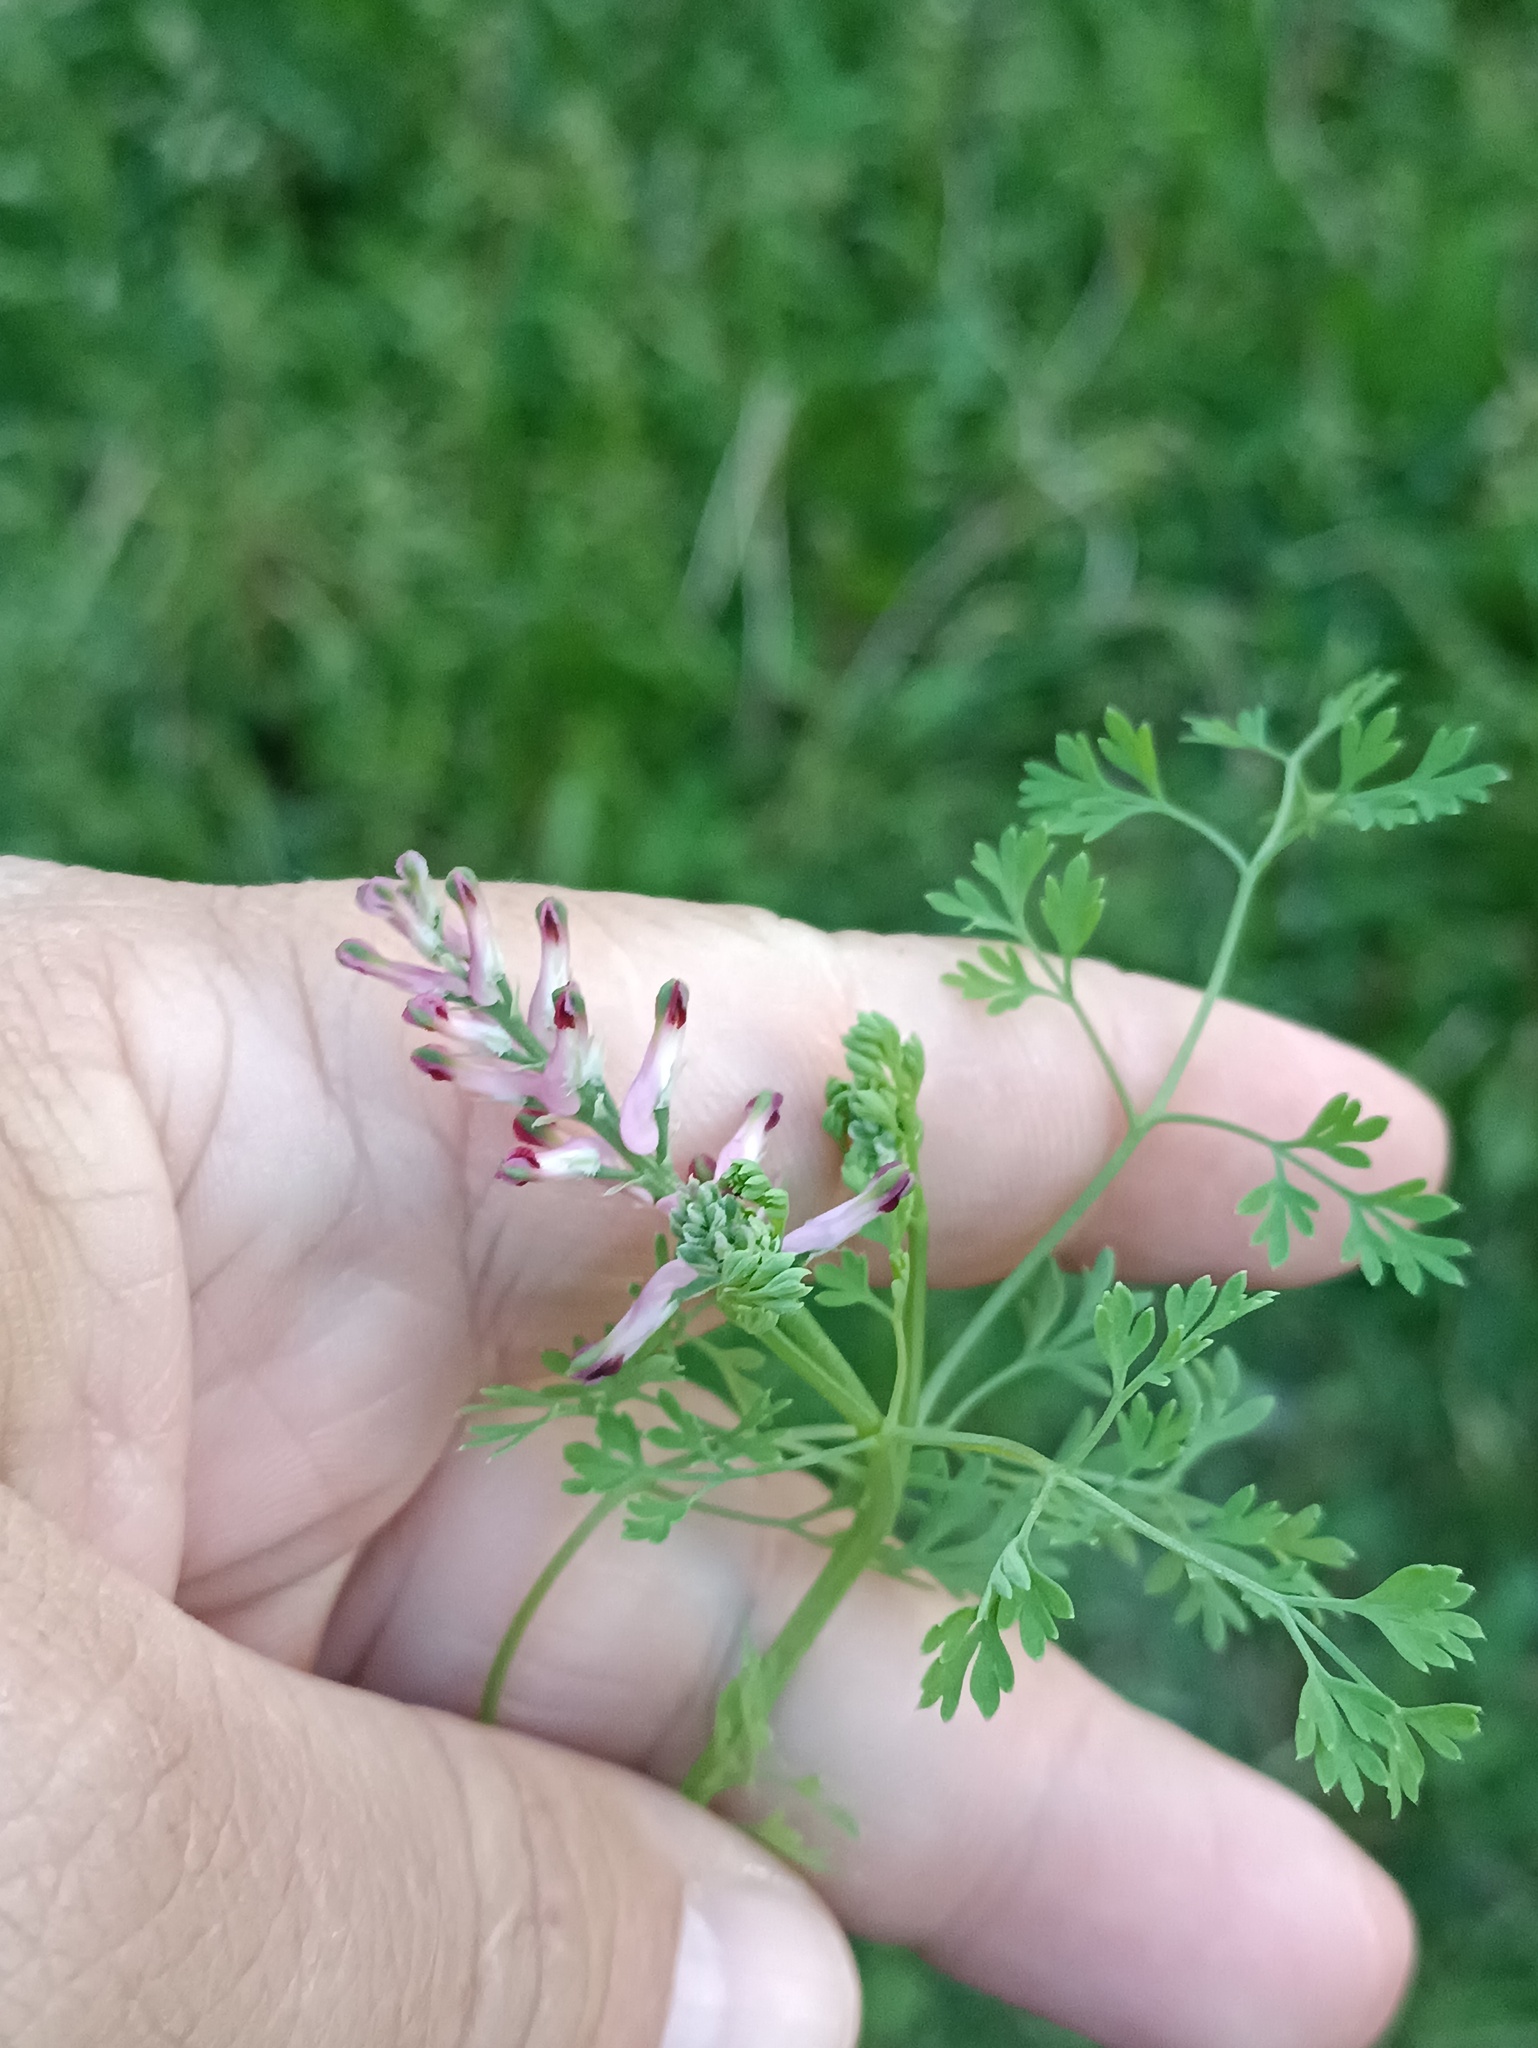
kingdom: Plantae
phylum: Tracheophyta
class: Magnoliopsida
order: Ranunculales
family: Papaveraceae
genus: Fumaria
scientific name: Fumaria officinalis
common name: Common fumitory
